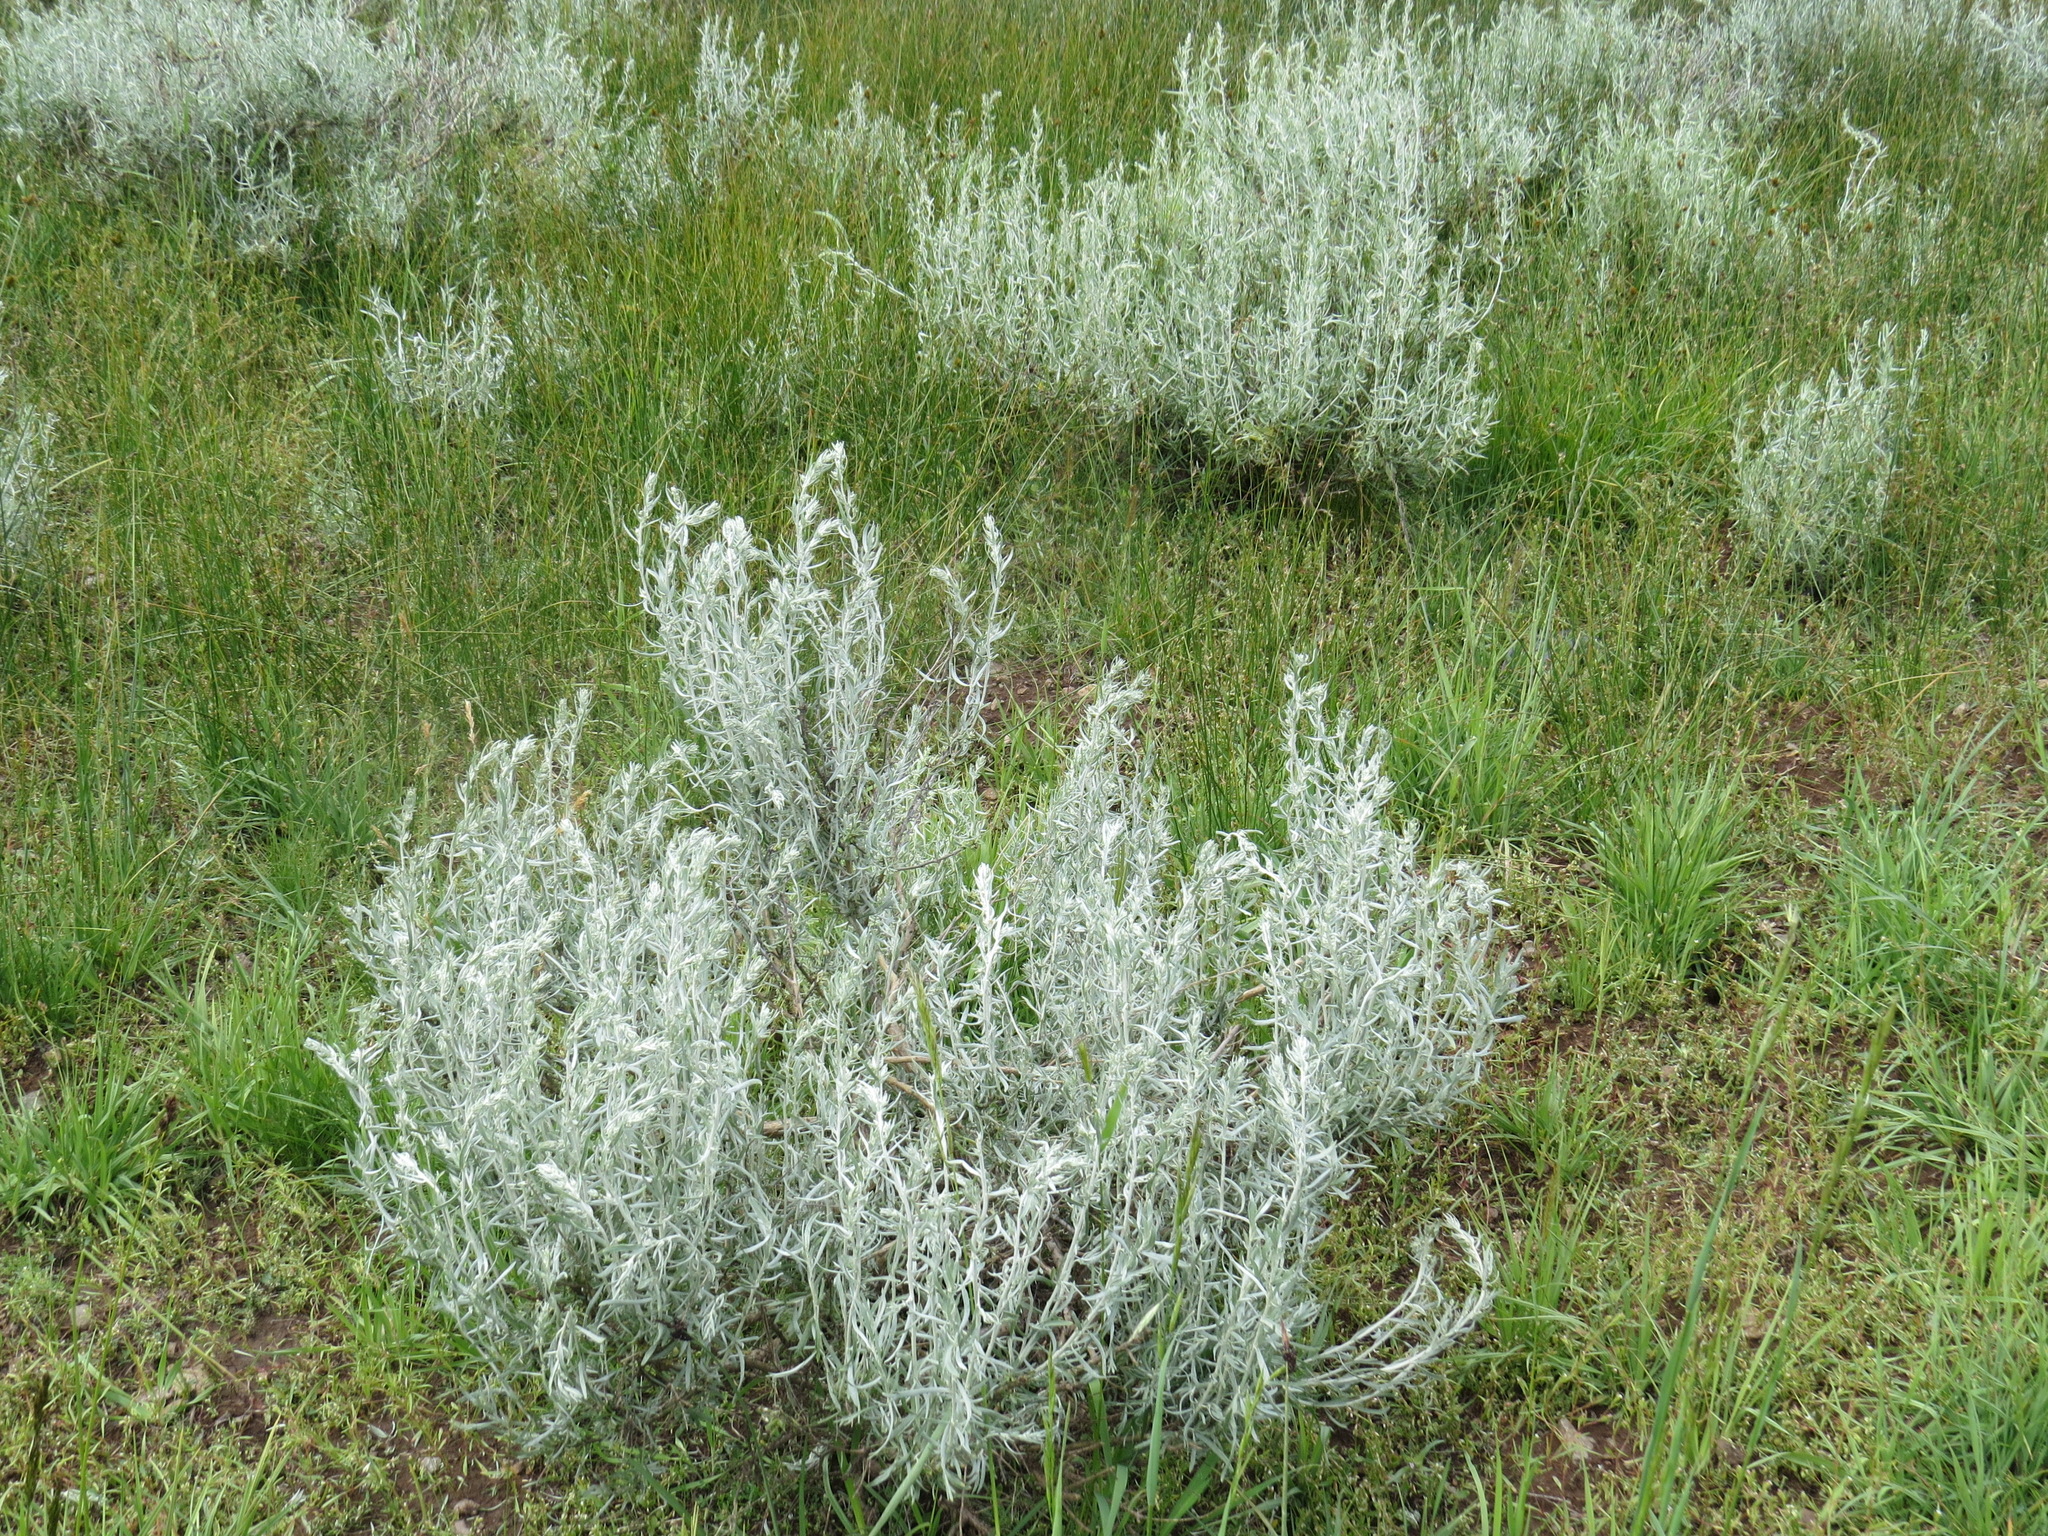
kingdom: Plantae
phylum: Tracheophyta
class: Magnoliopsida
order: Asterales
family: Asteraceae
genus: Artemisia
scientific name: Artemisia cana
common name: Silver sagebrush
